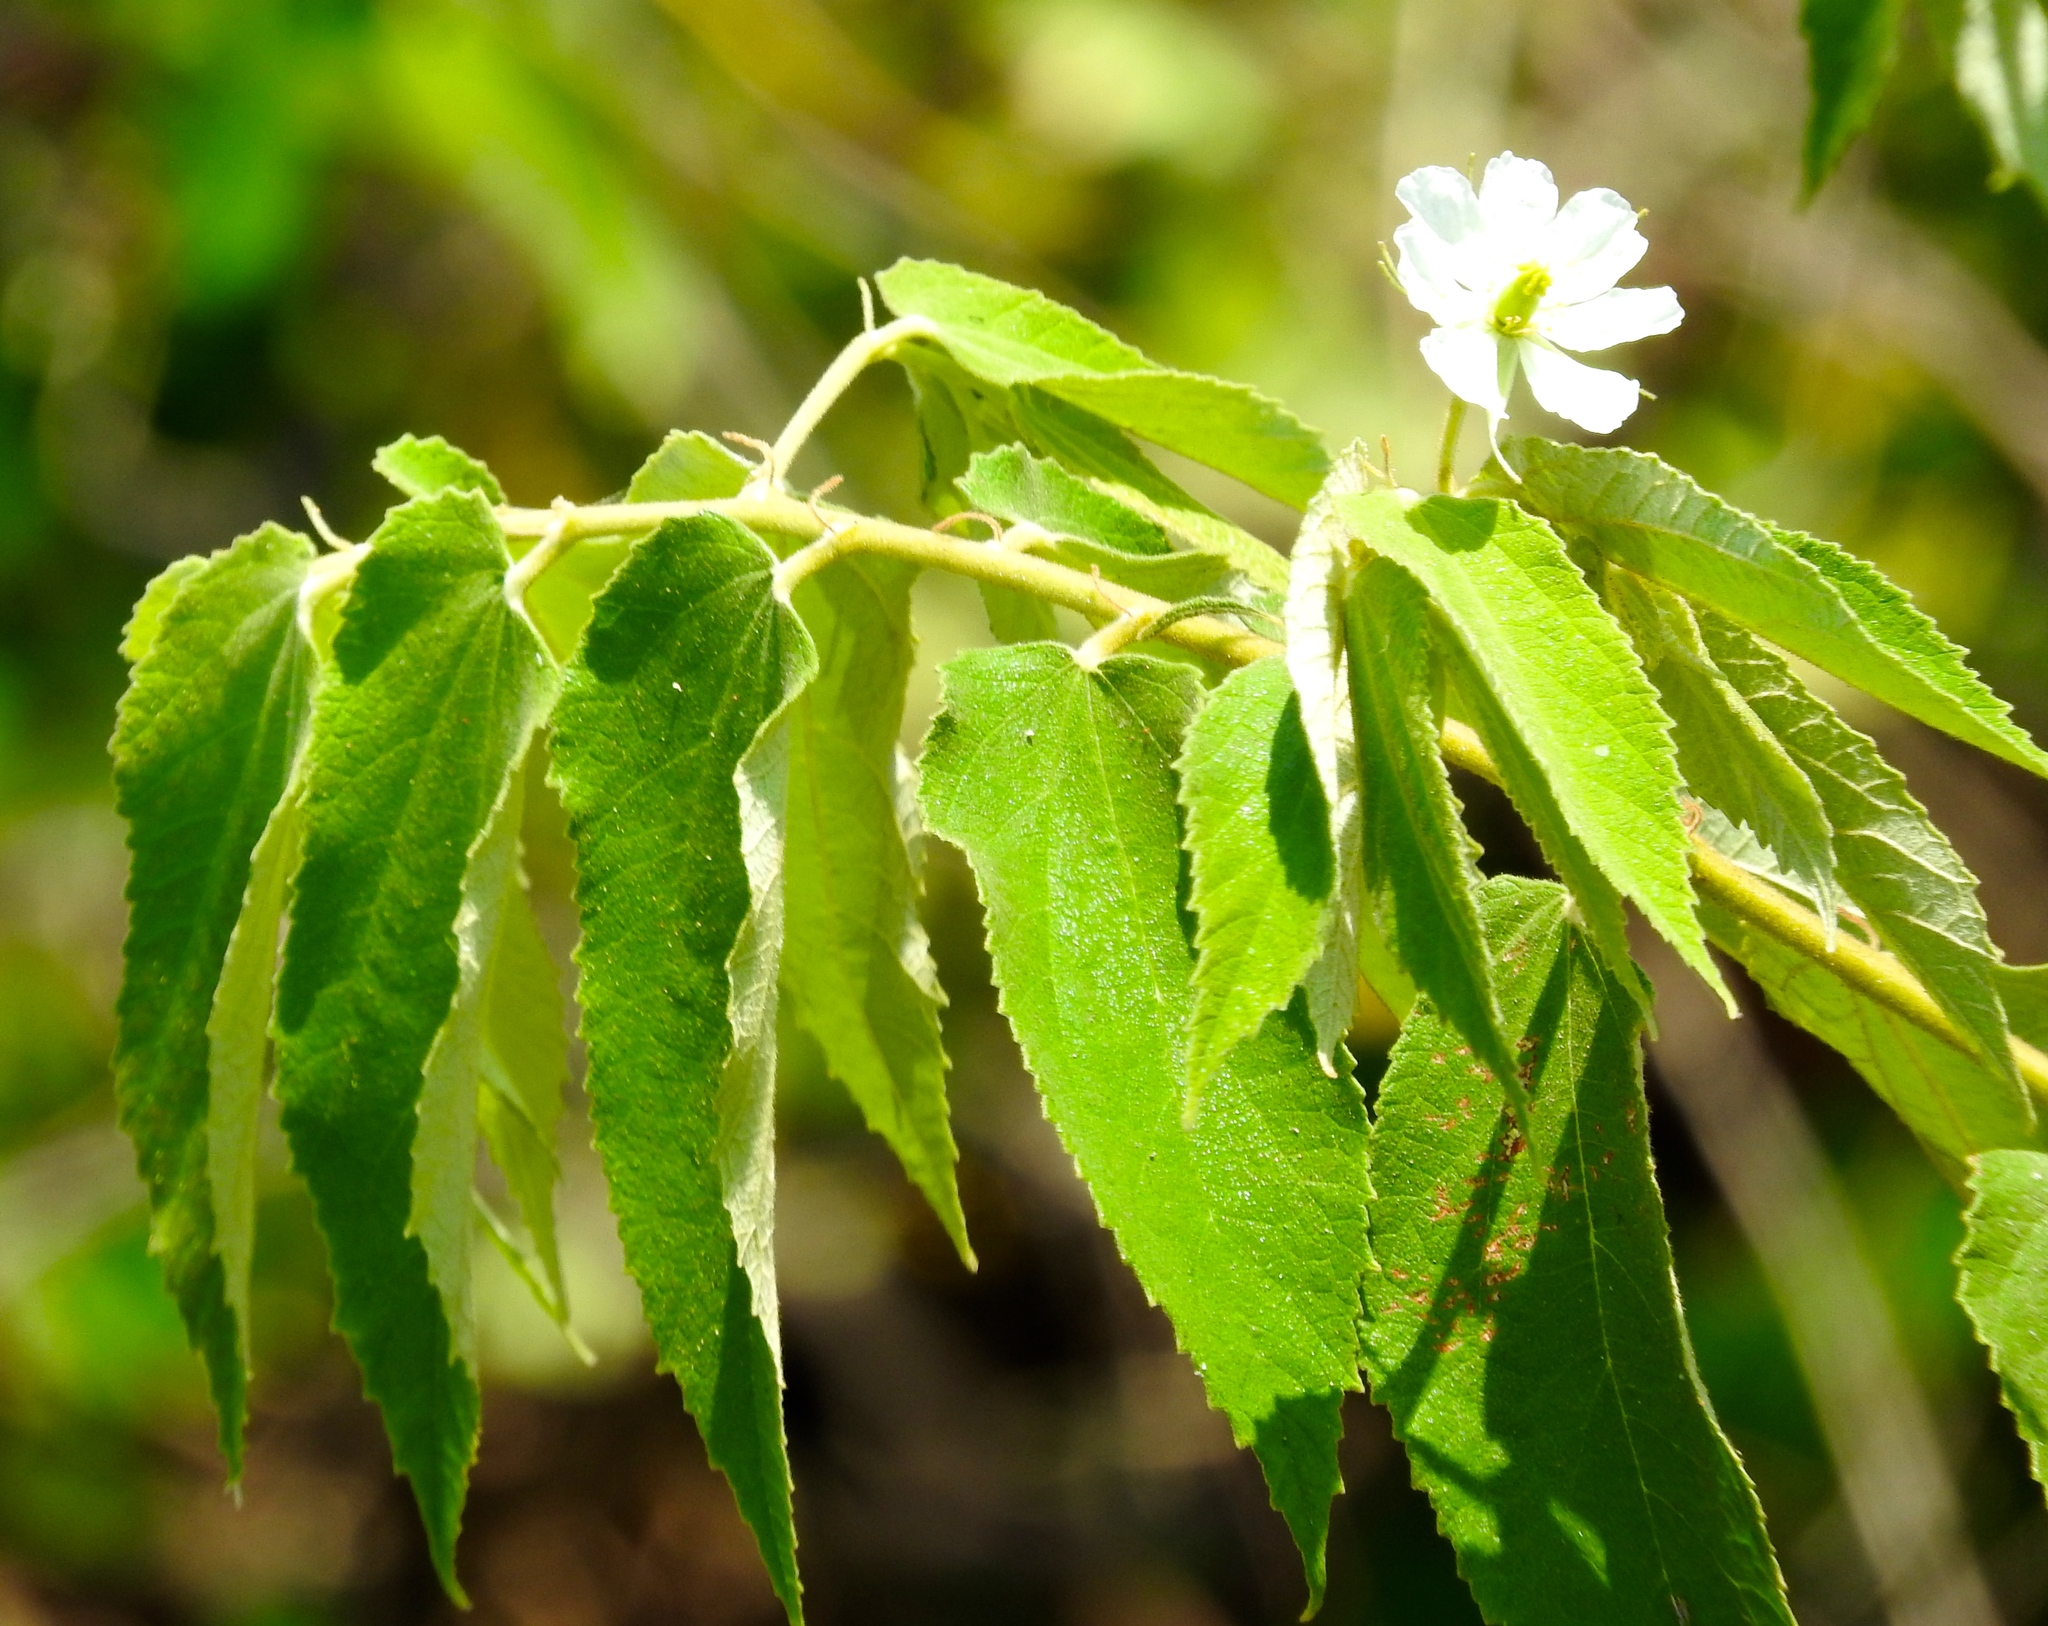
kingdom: Plantae
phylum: Tracheophyta
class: Magnoliopsida
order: Malvales
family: Muntingiaceae
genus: Muntingia
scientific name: Muntingia calabura
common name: Strawberrytree
